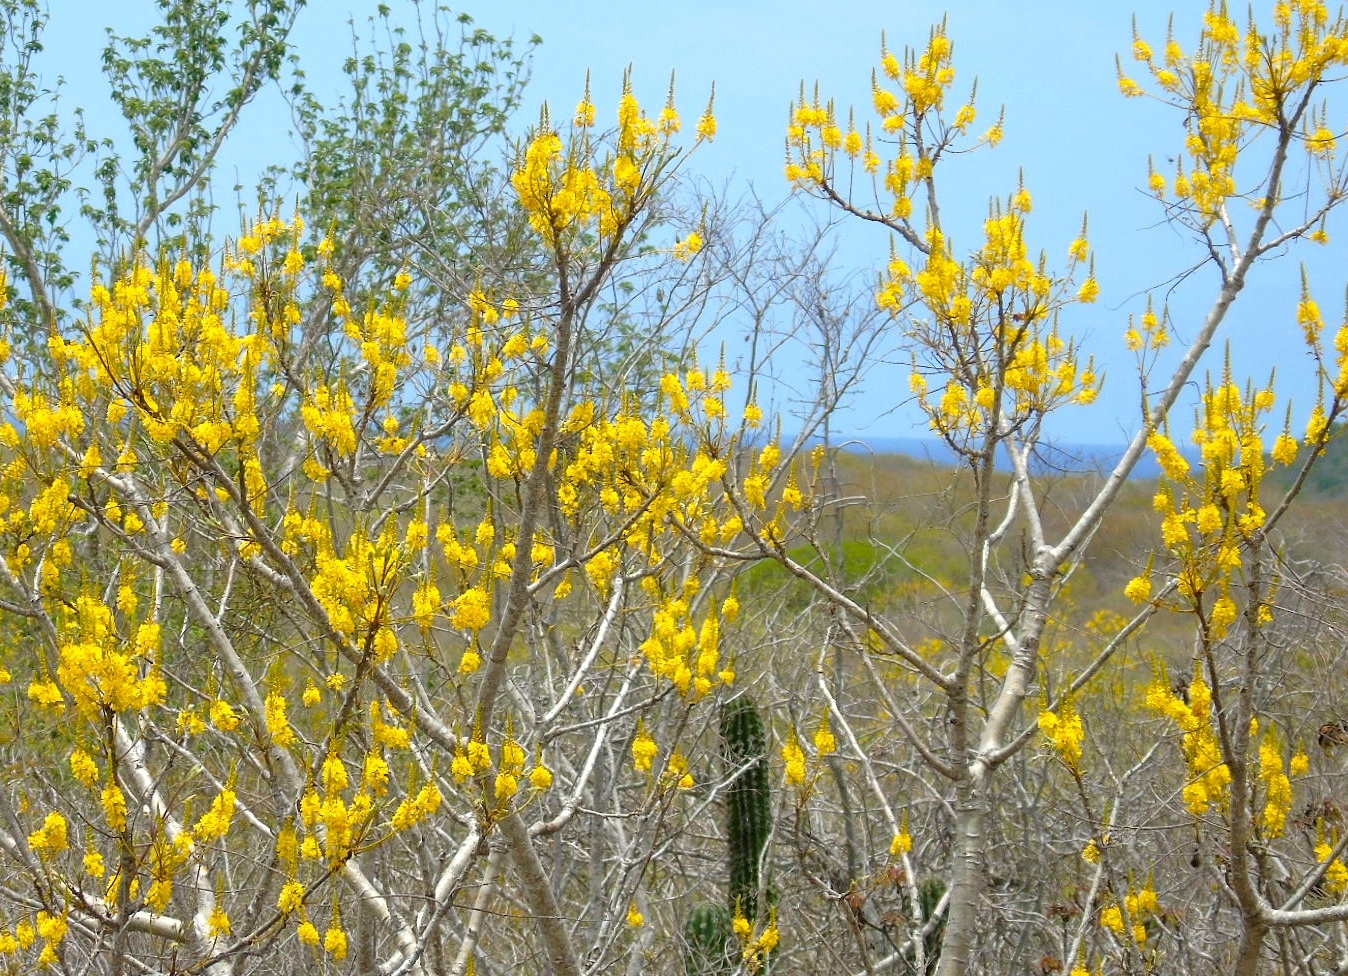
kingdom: Plantae
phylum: Tracheophyta
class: Magnoliopsida
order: Fabales
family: Fabaceae
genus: Conzattia
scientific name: Conzattia
